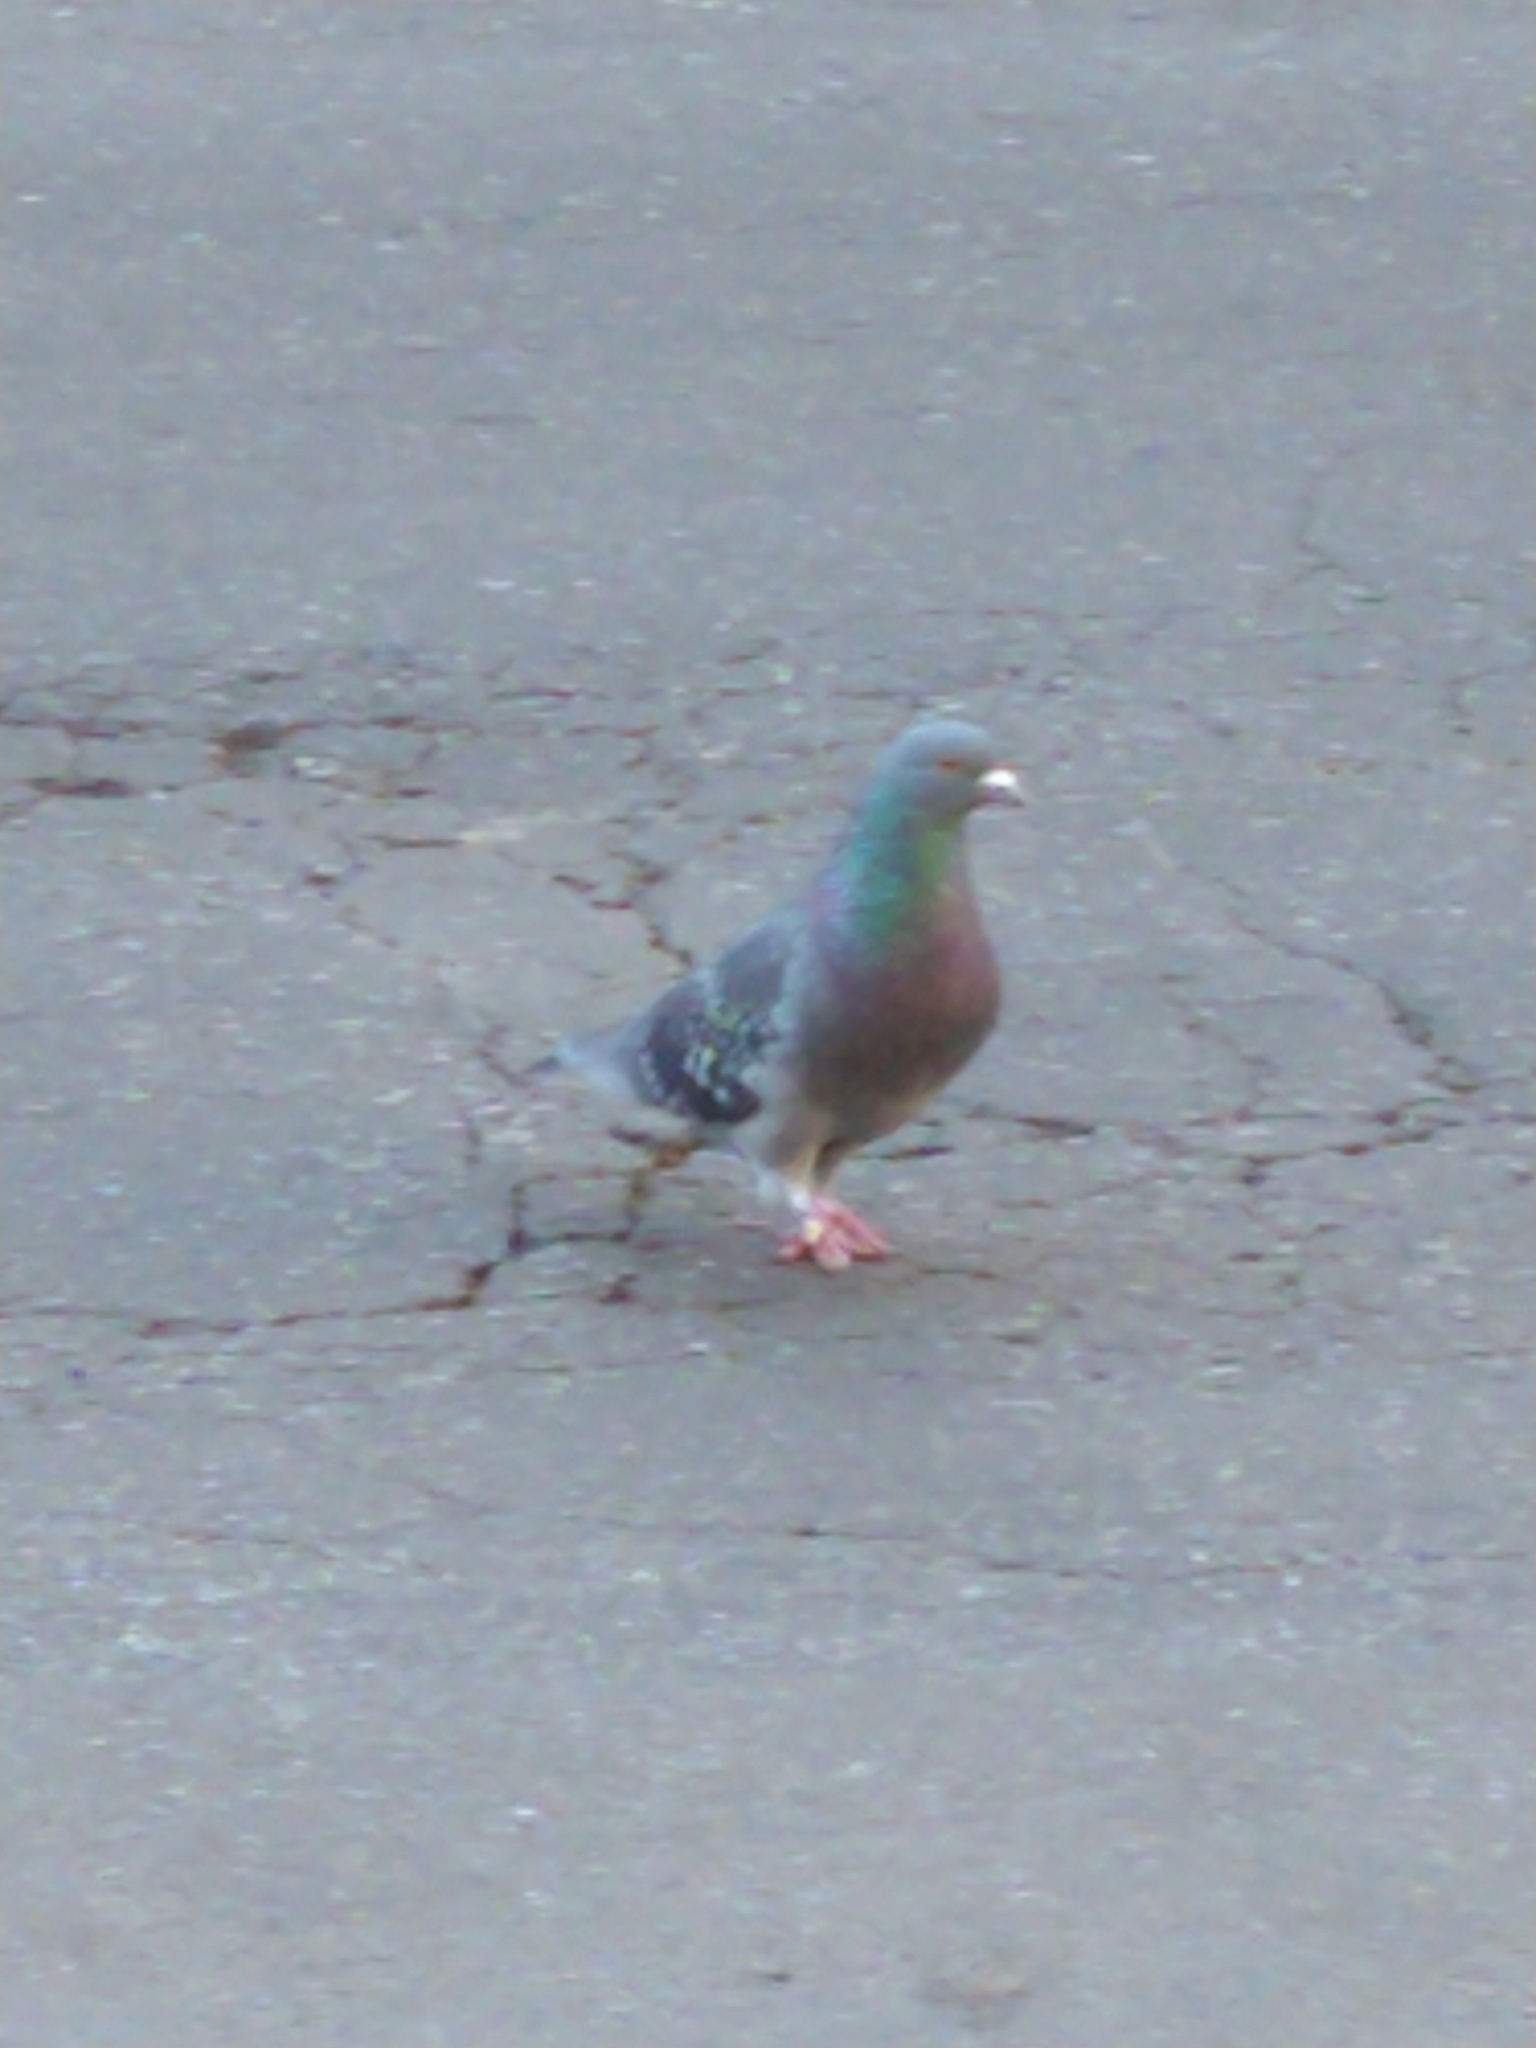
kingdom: Animalia
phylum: Chordata
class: Aves
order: Columbiformes
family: Columbidae
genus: Columba
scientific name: Columba livia
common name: Rock pigeon
